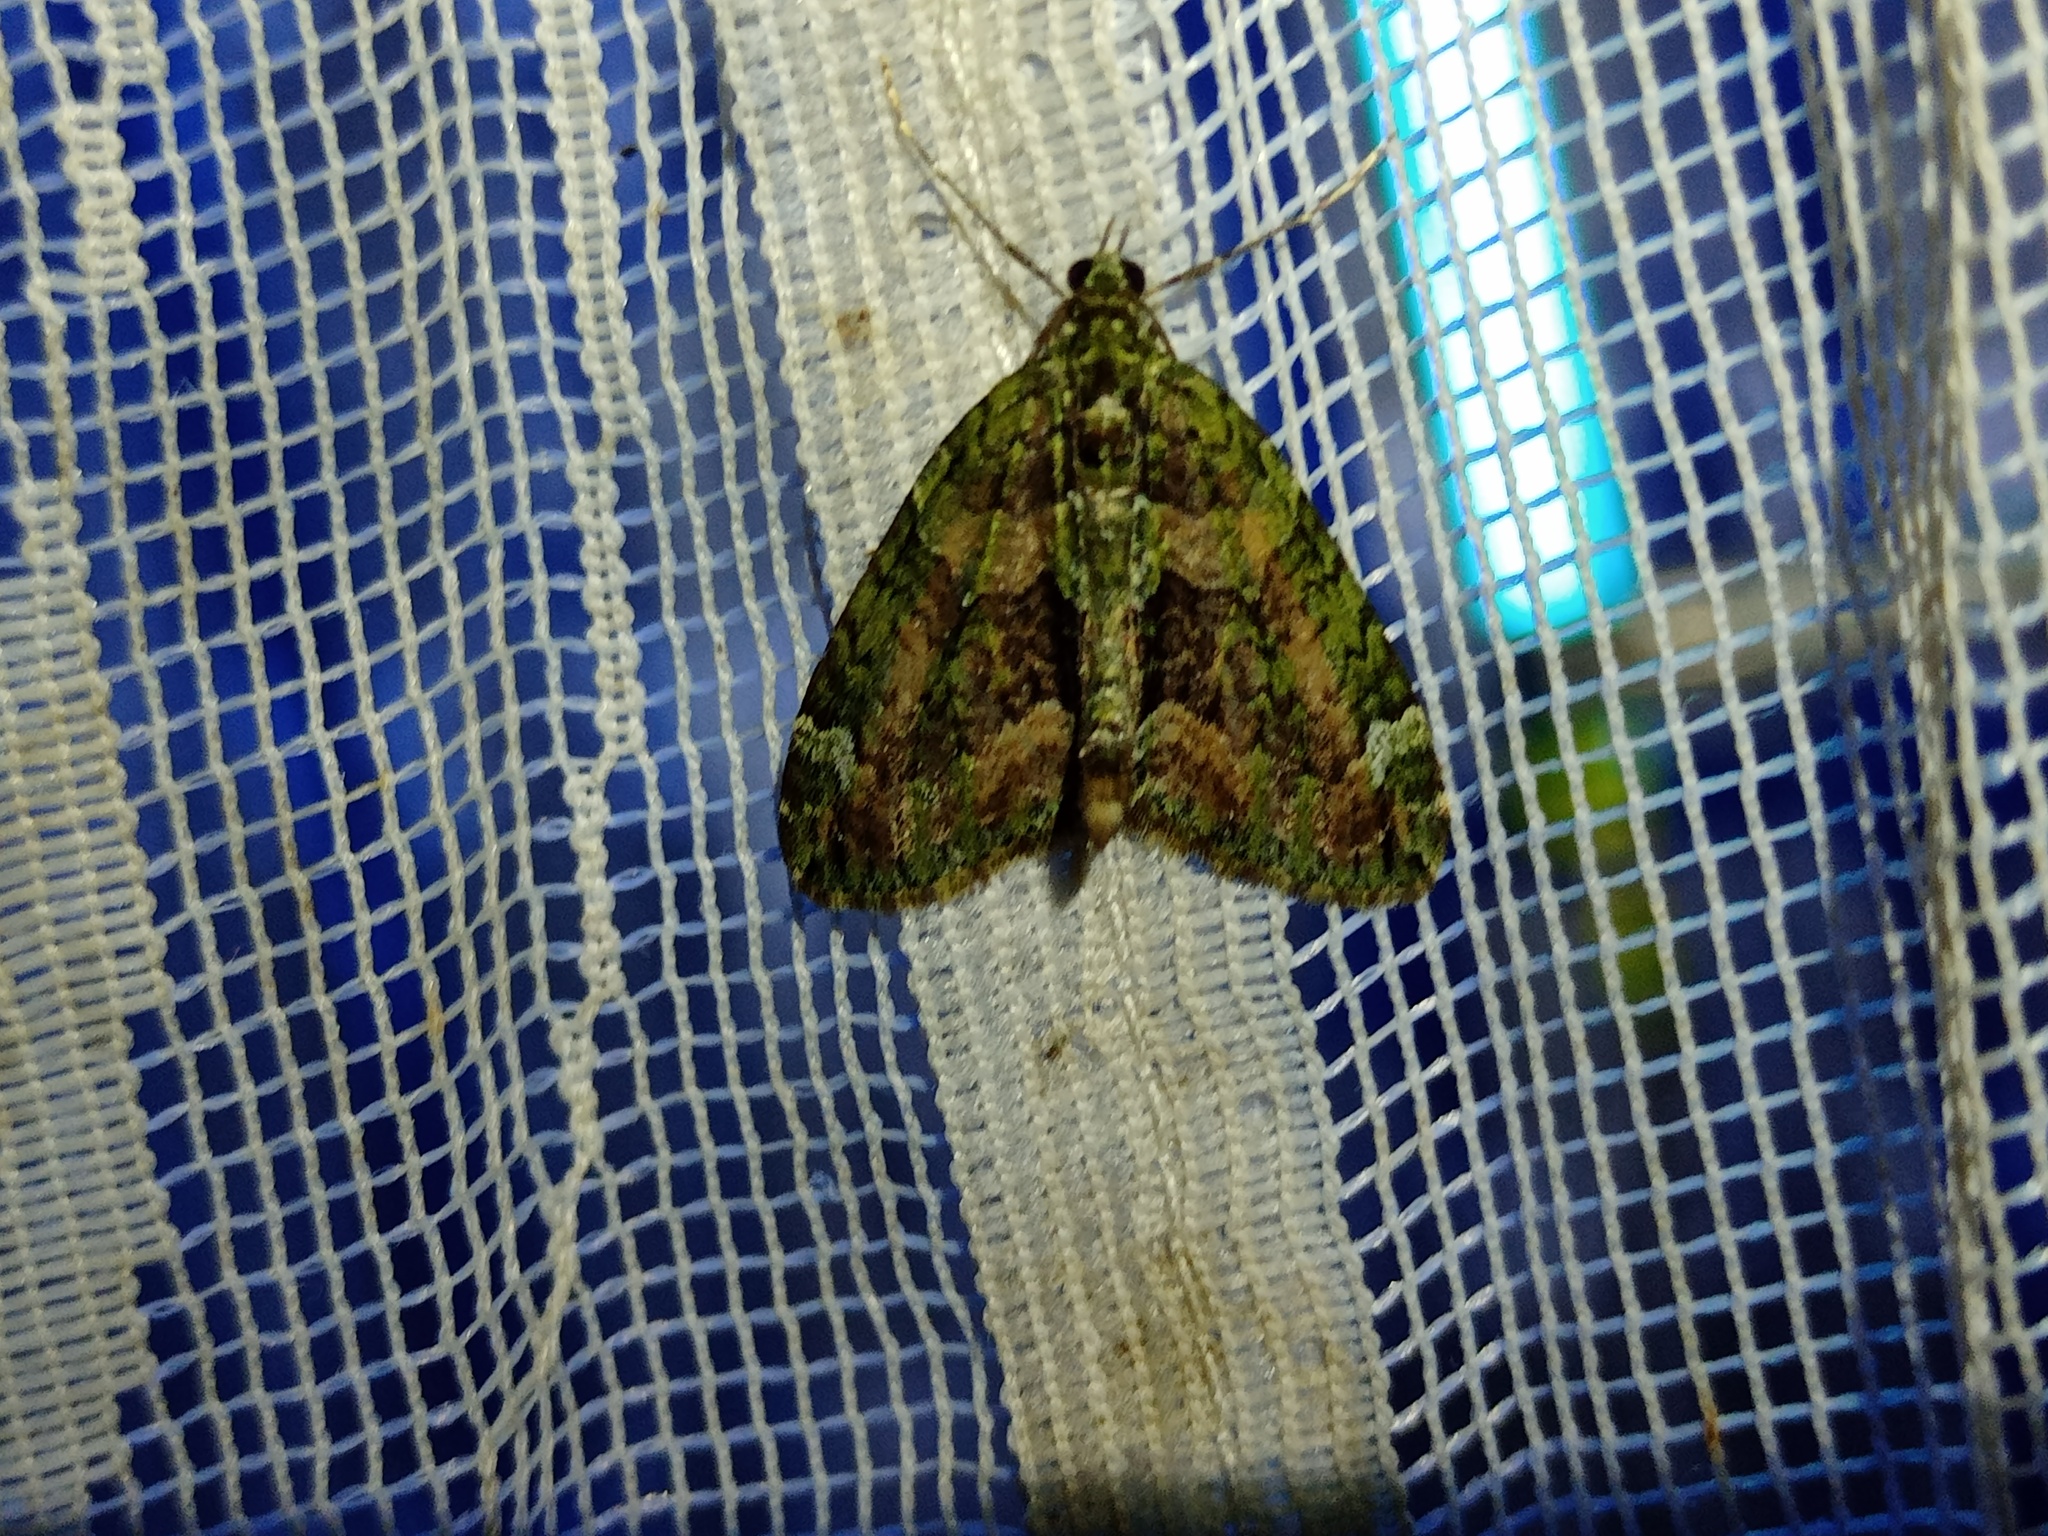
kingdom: Animalia
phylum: Arthropoda
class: Insecta
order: Lepidoptera
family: Geometridae
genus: Chloroclysta
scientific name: Chloroclysta siterata
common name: Red-green carpet
